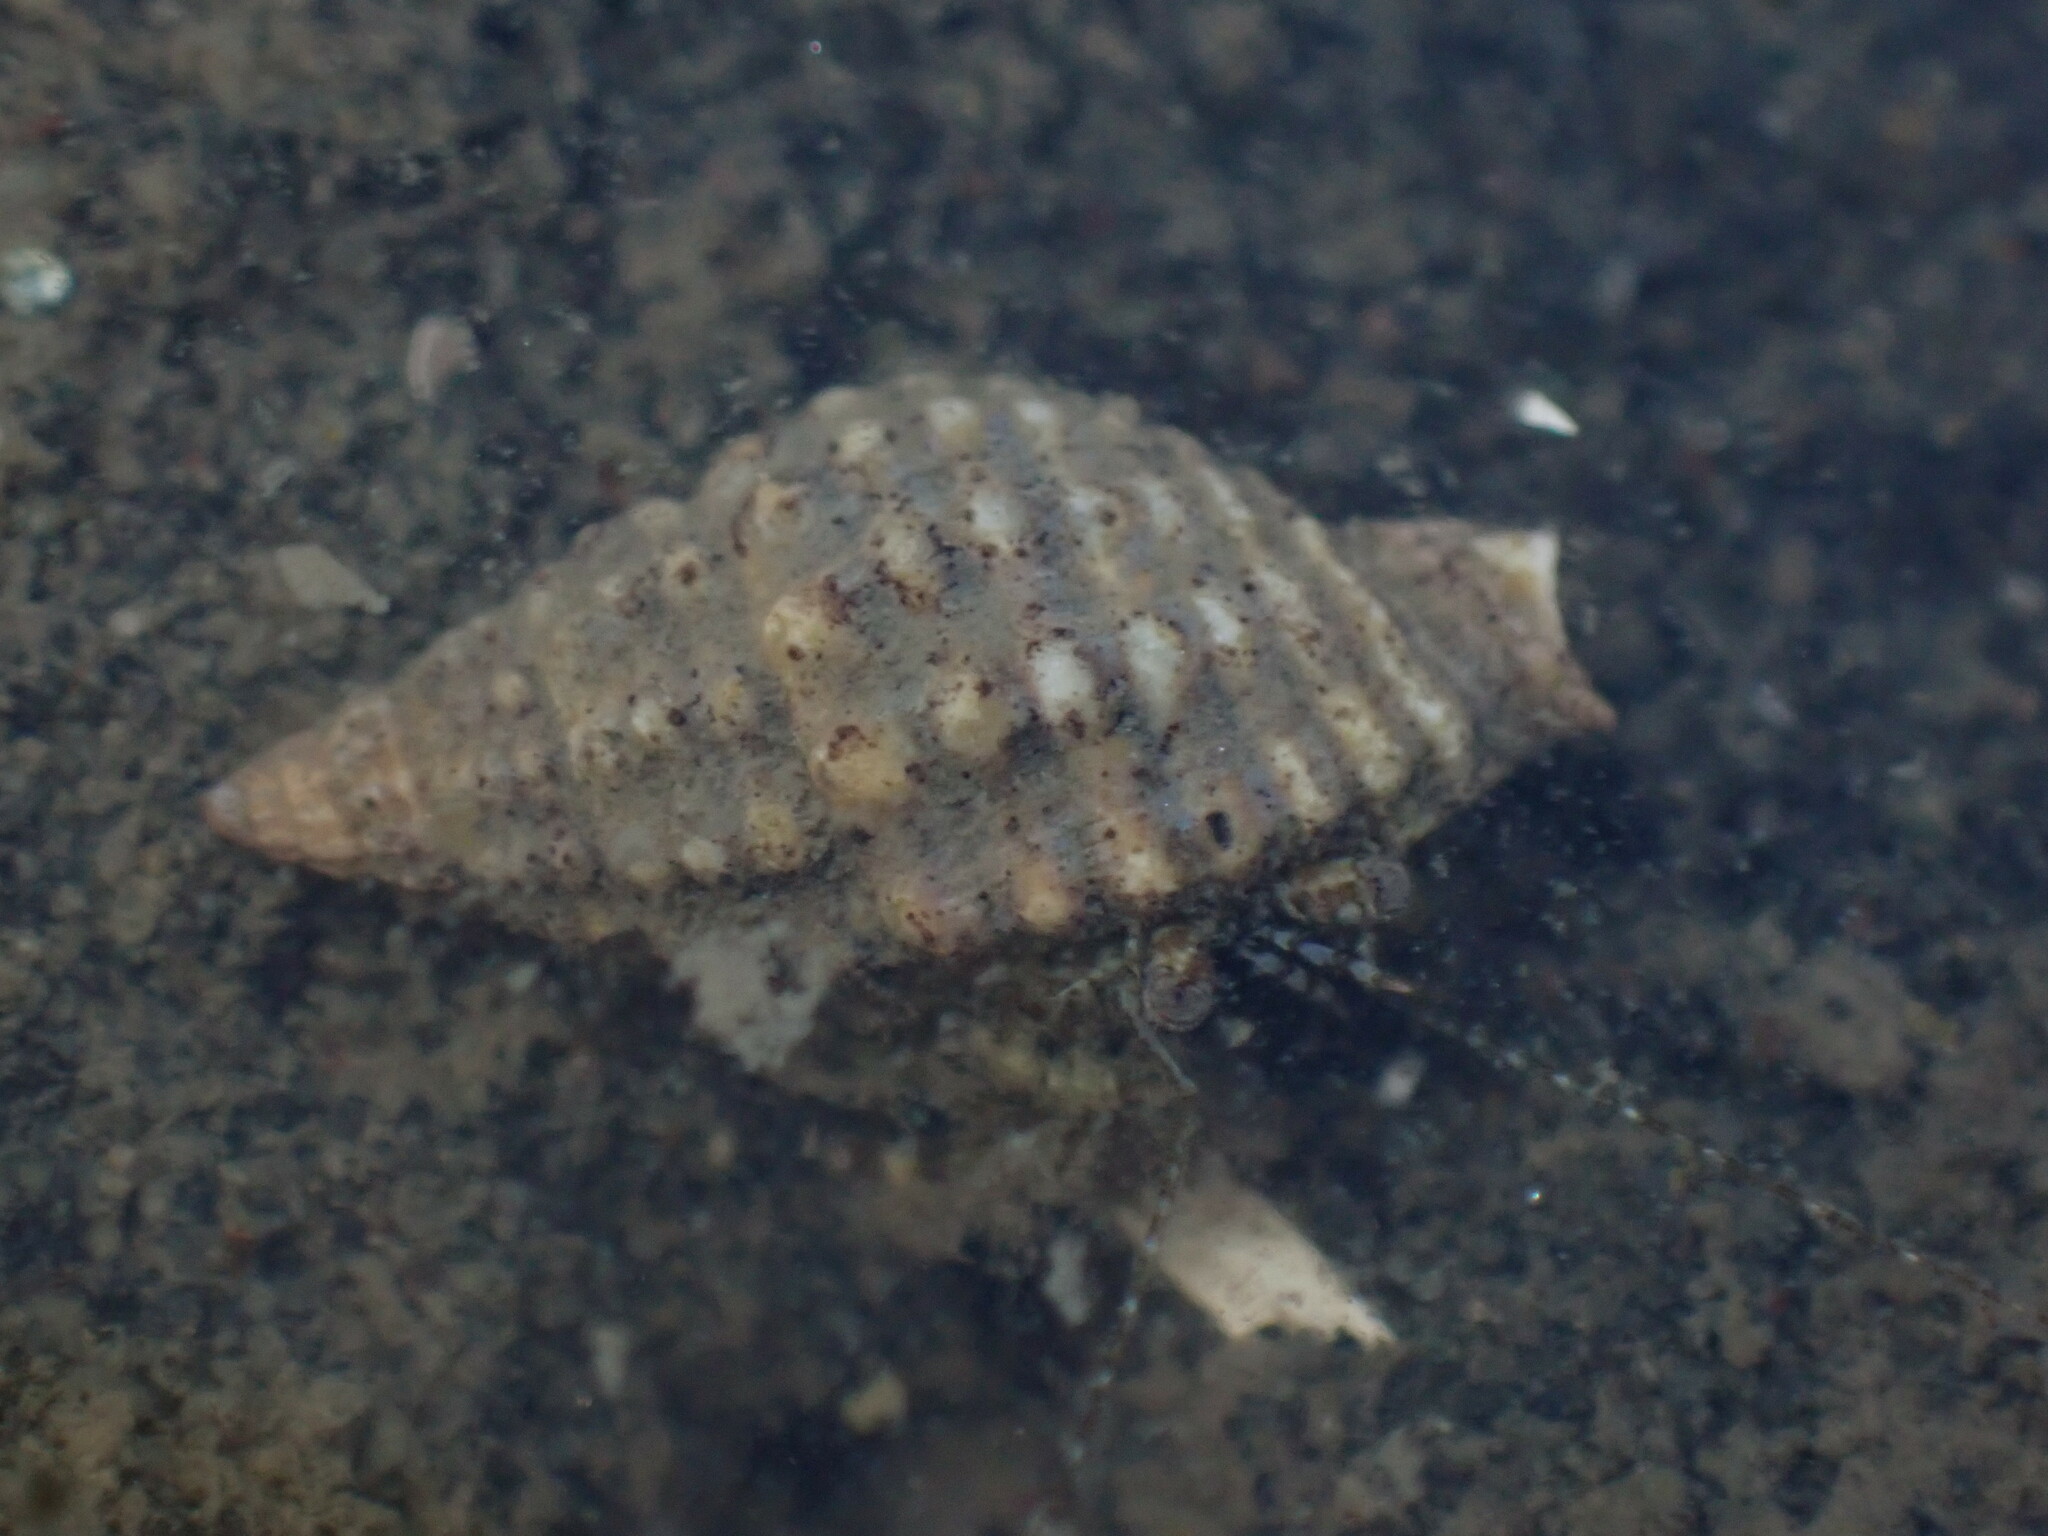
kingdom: Animalia
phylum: Arthropoda
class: Malacostraca
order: Decapoda
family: Paguridae
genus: Pagurus
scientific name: Pagurus minutus
